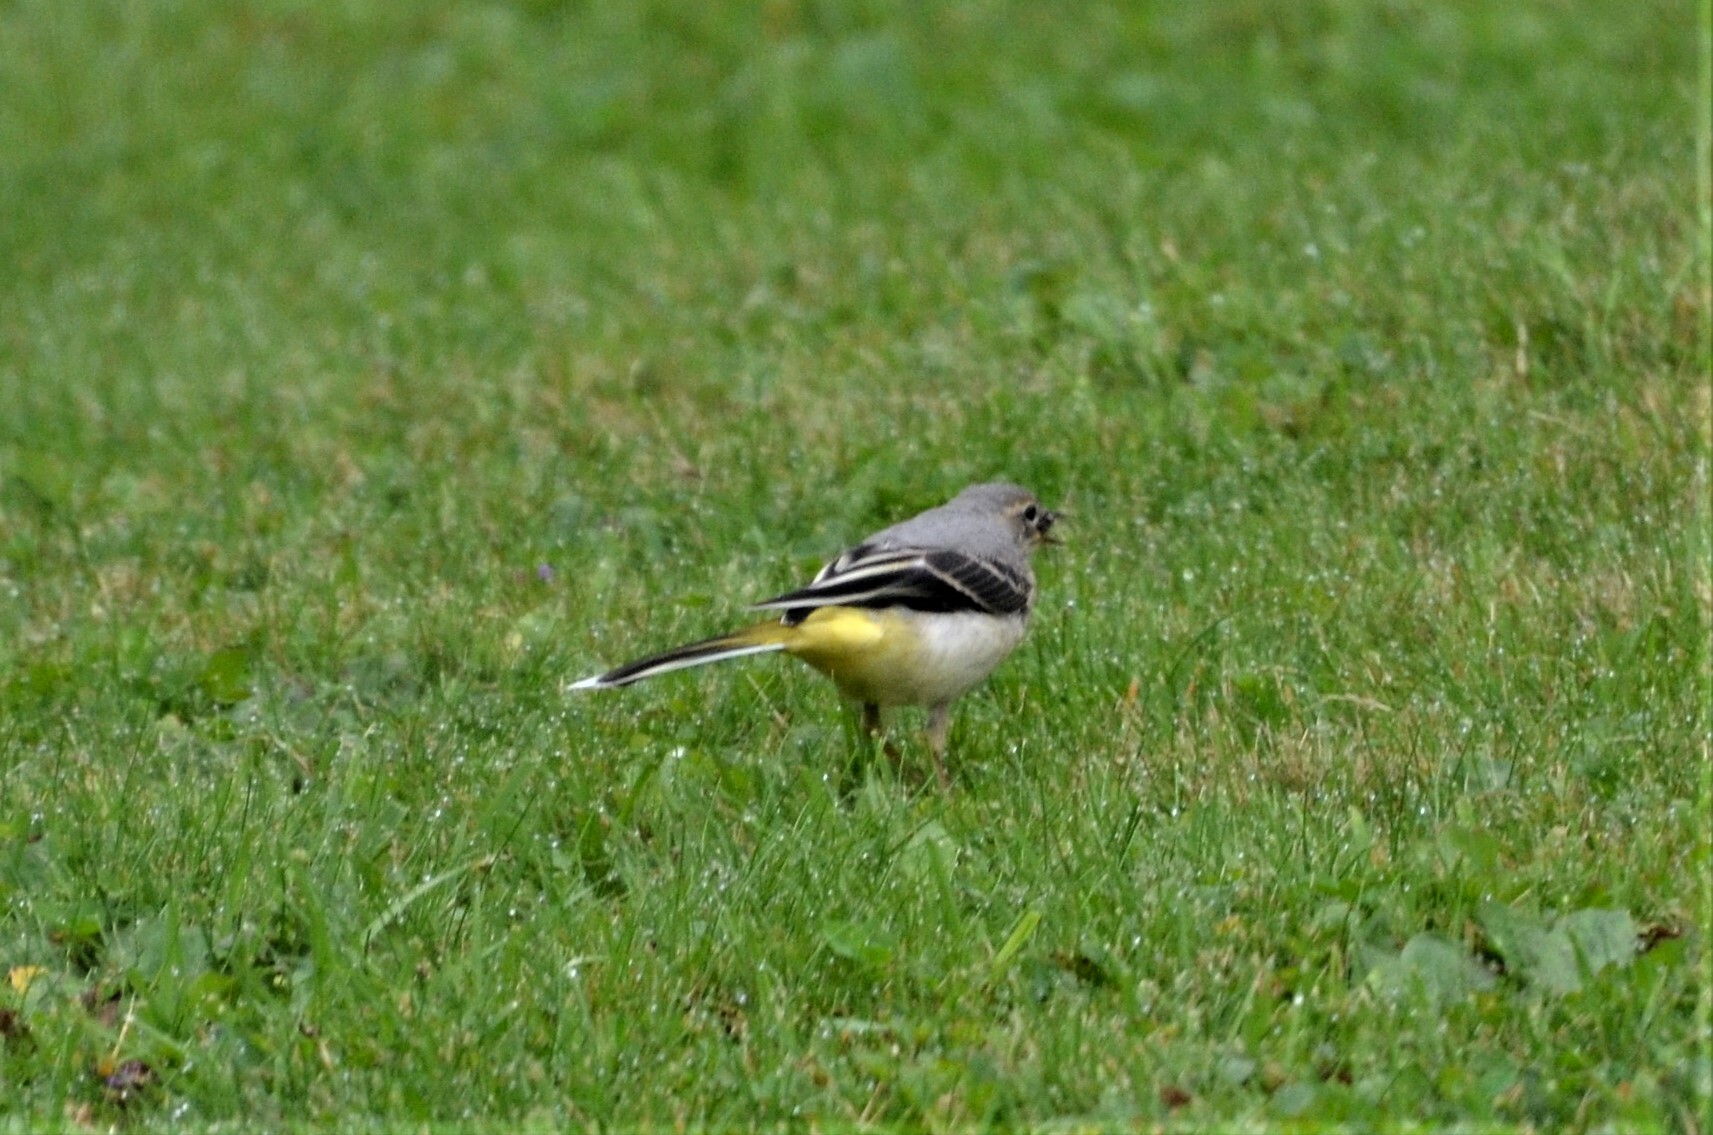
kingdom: Animalia
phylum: Chordata
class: Aves
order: Passeriformes
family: Motacillidae
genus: Motacilla
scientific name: Motacilla cinerea
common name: Grey wagtail
